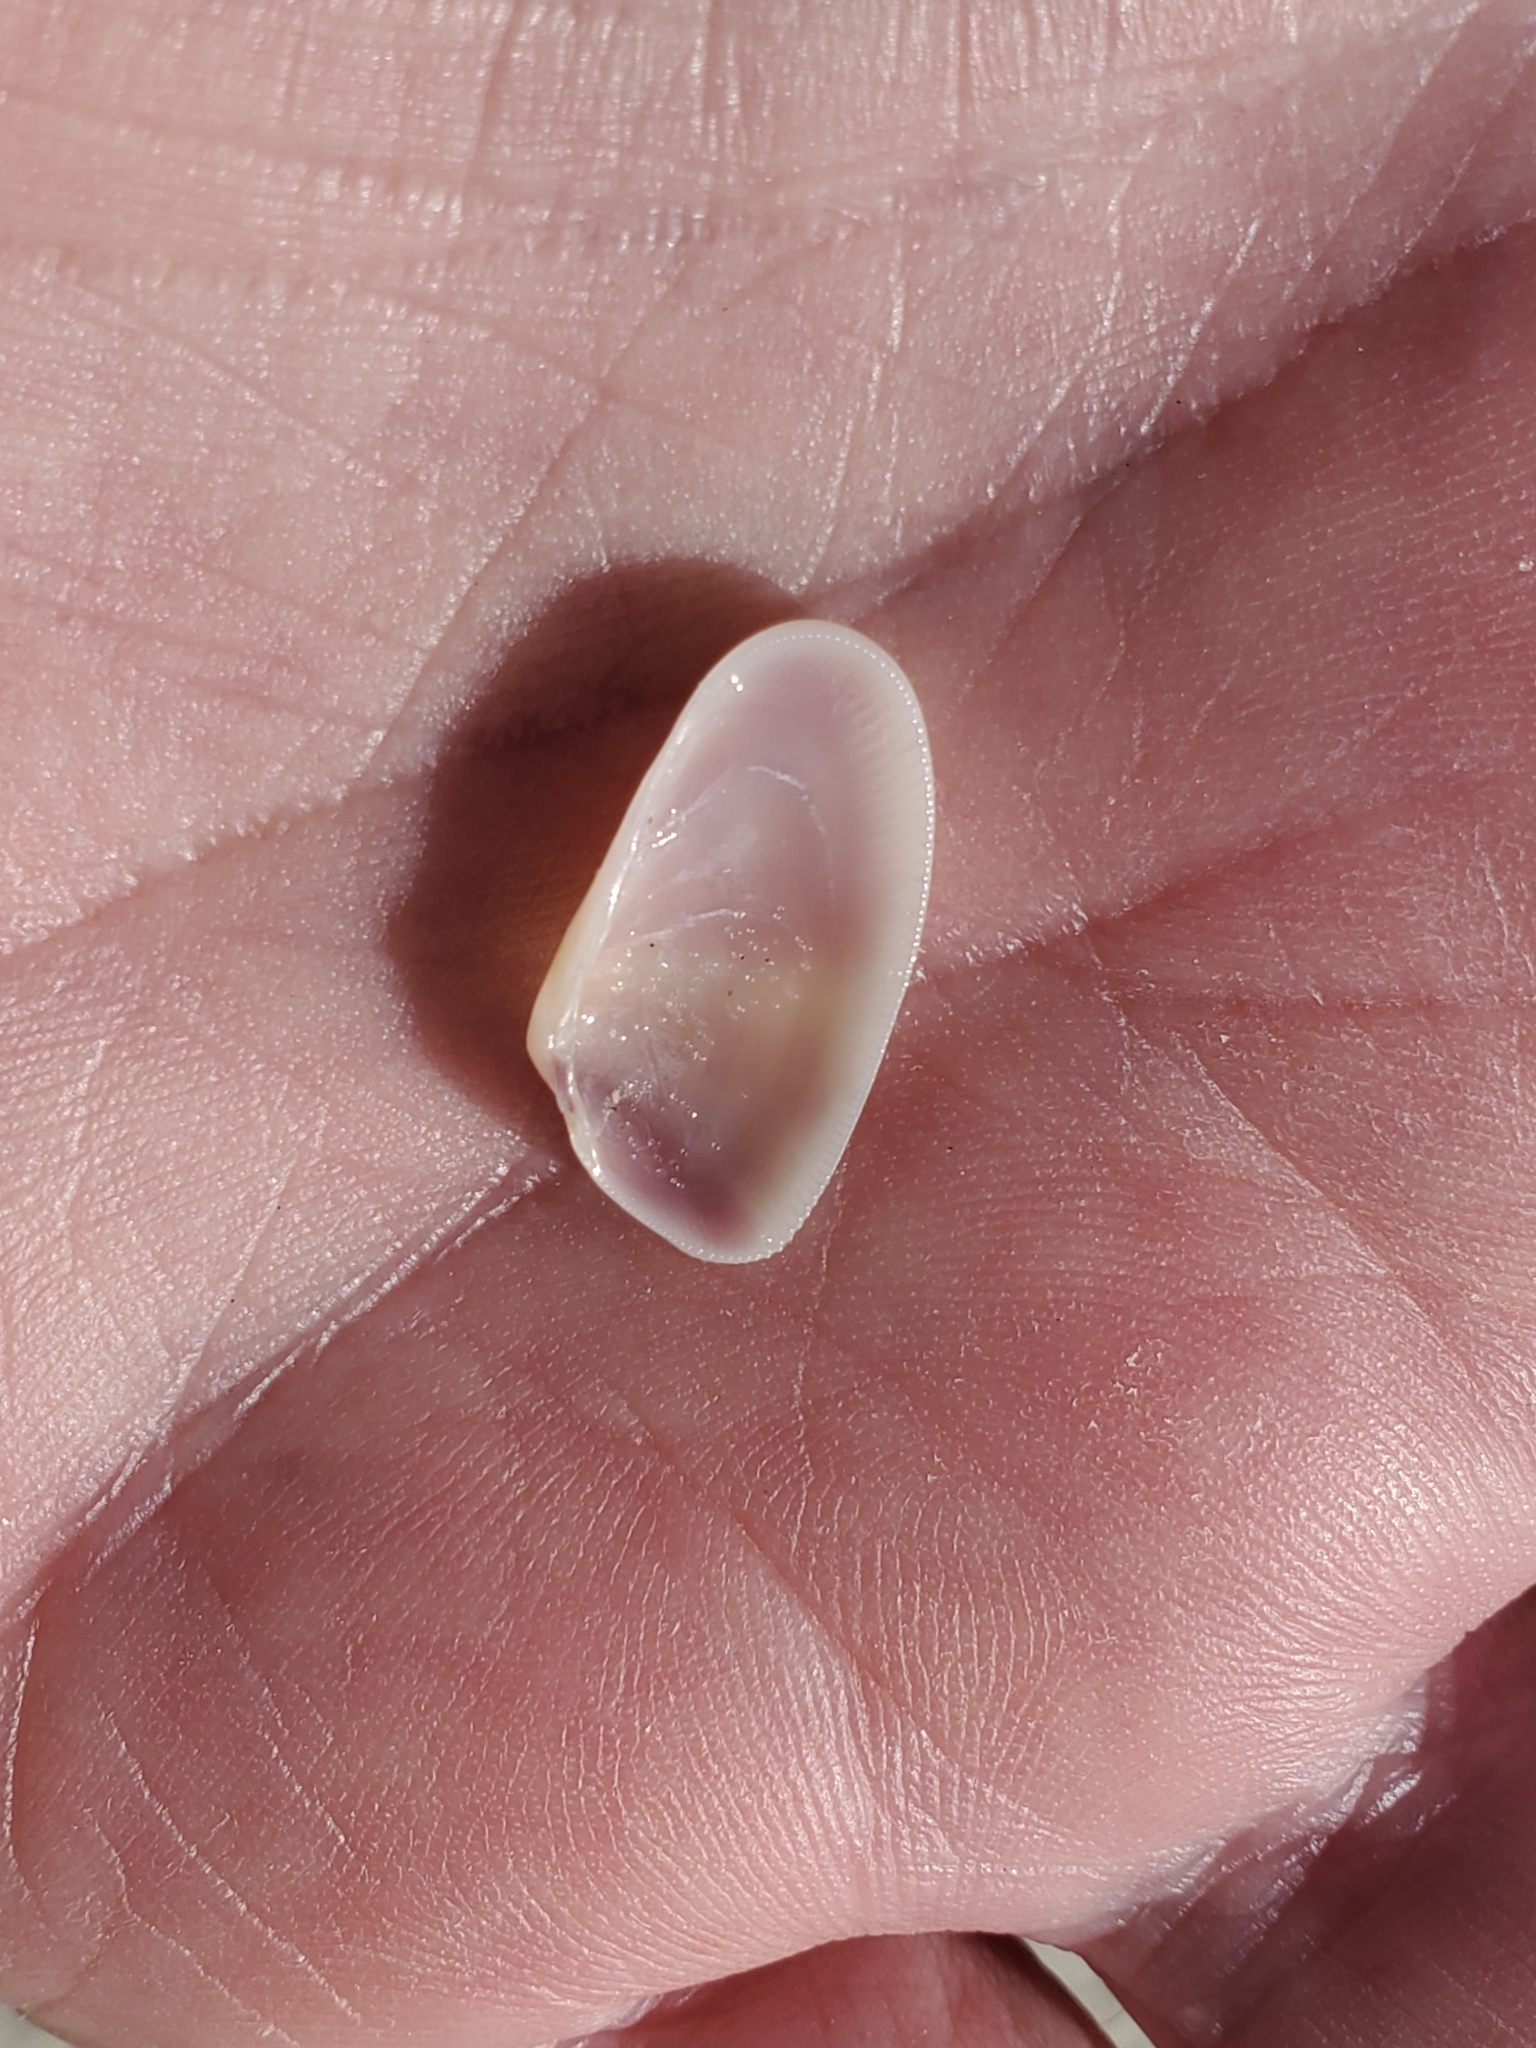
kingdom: Animalia
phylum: Mollusca
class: Bivalvia
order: Cardiida
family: Donacidae
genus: Donax
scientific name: Donax variabilis
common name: Butterfly shell
